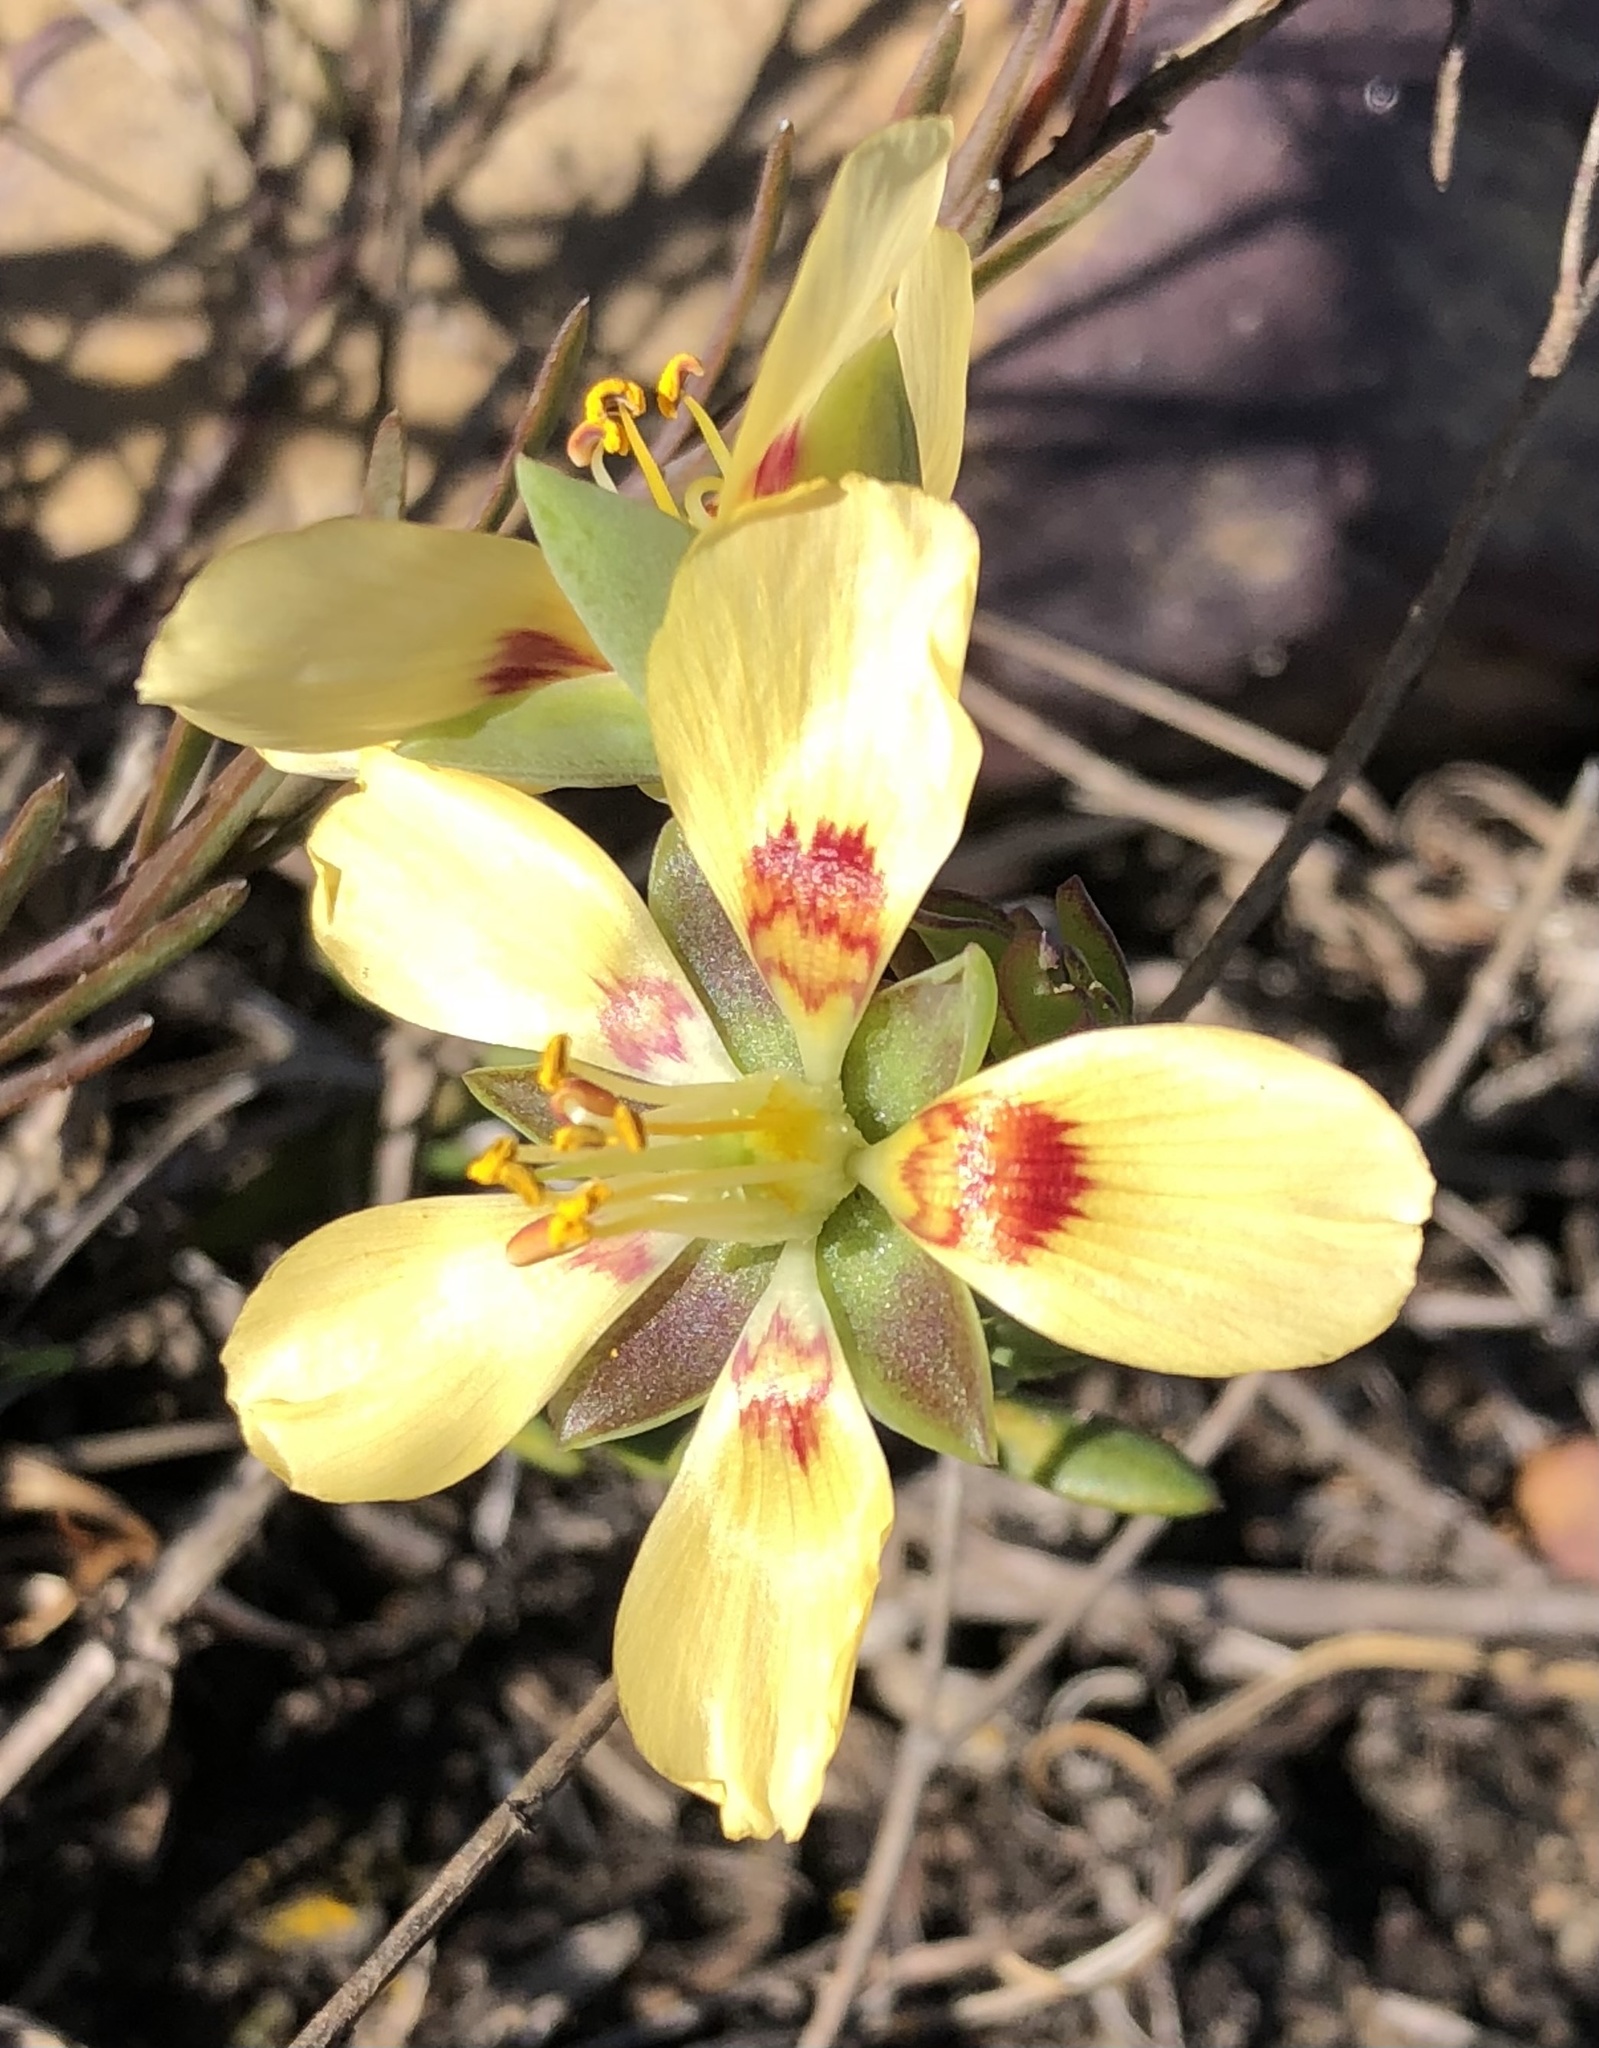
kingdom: Plantae
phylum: Tracheophyta
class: Magnoliopsida
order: Zygophyllales
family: Zygophyllaceae
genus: Roepera
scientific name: Roepera flexuosa
